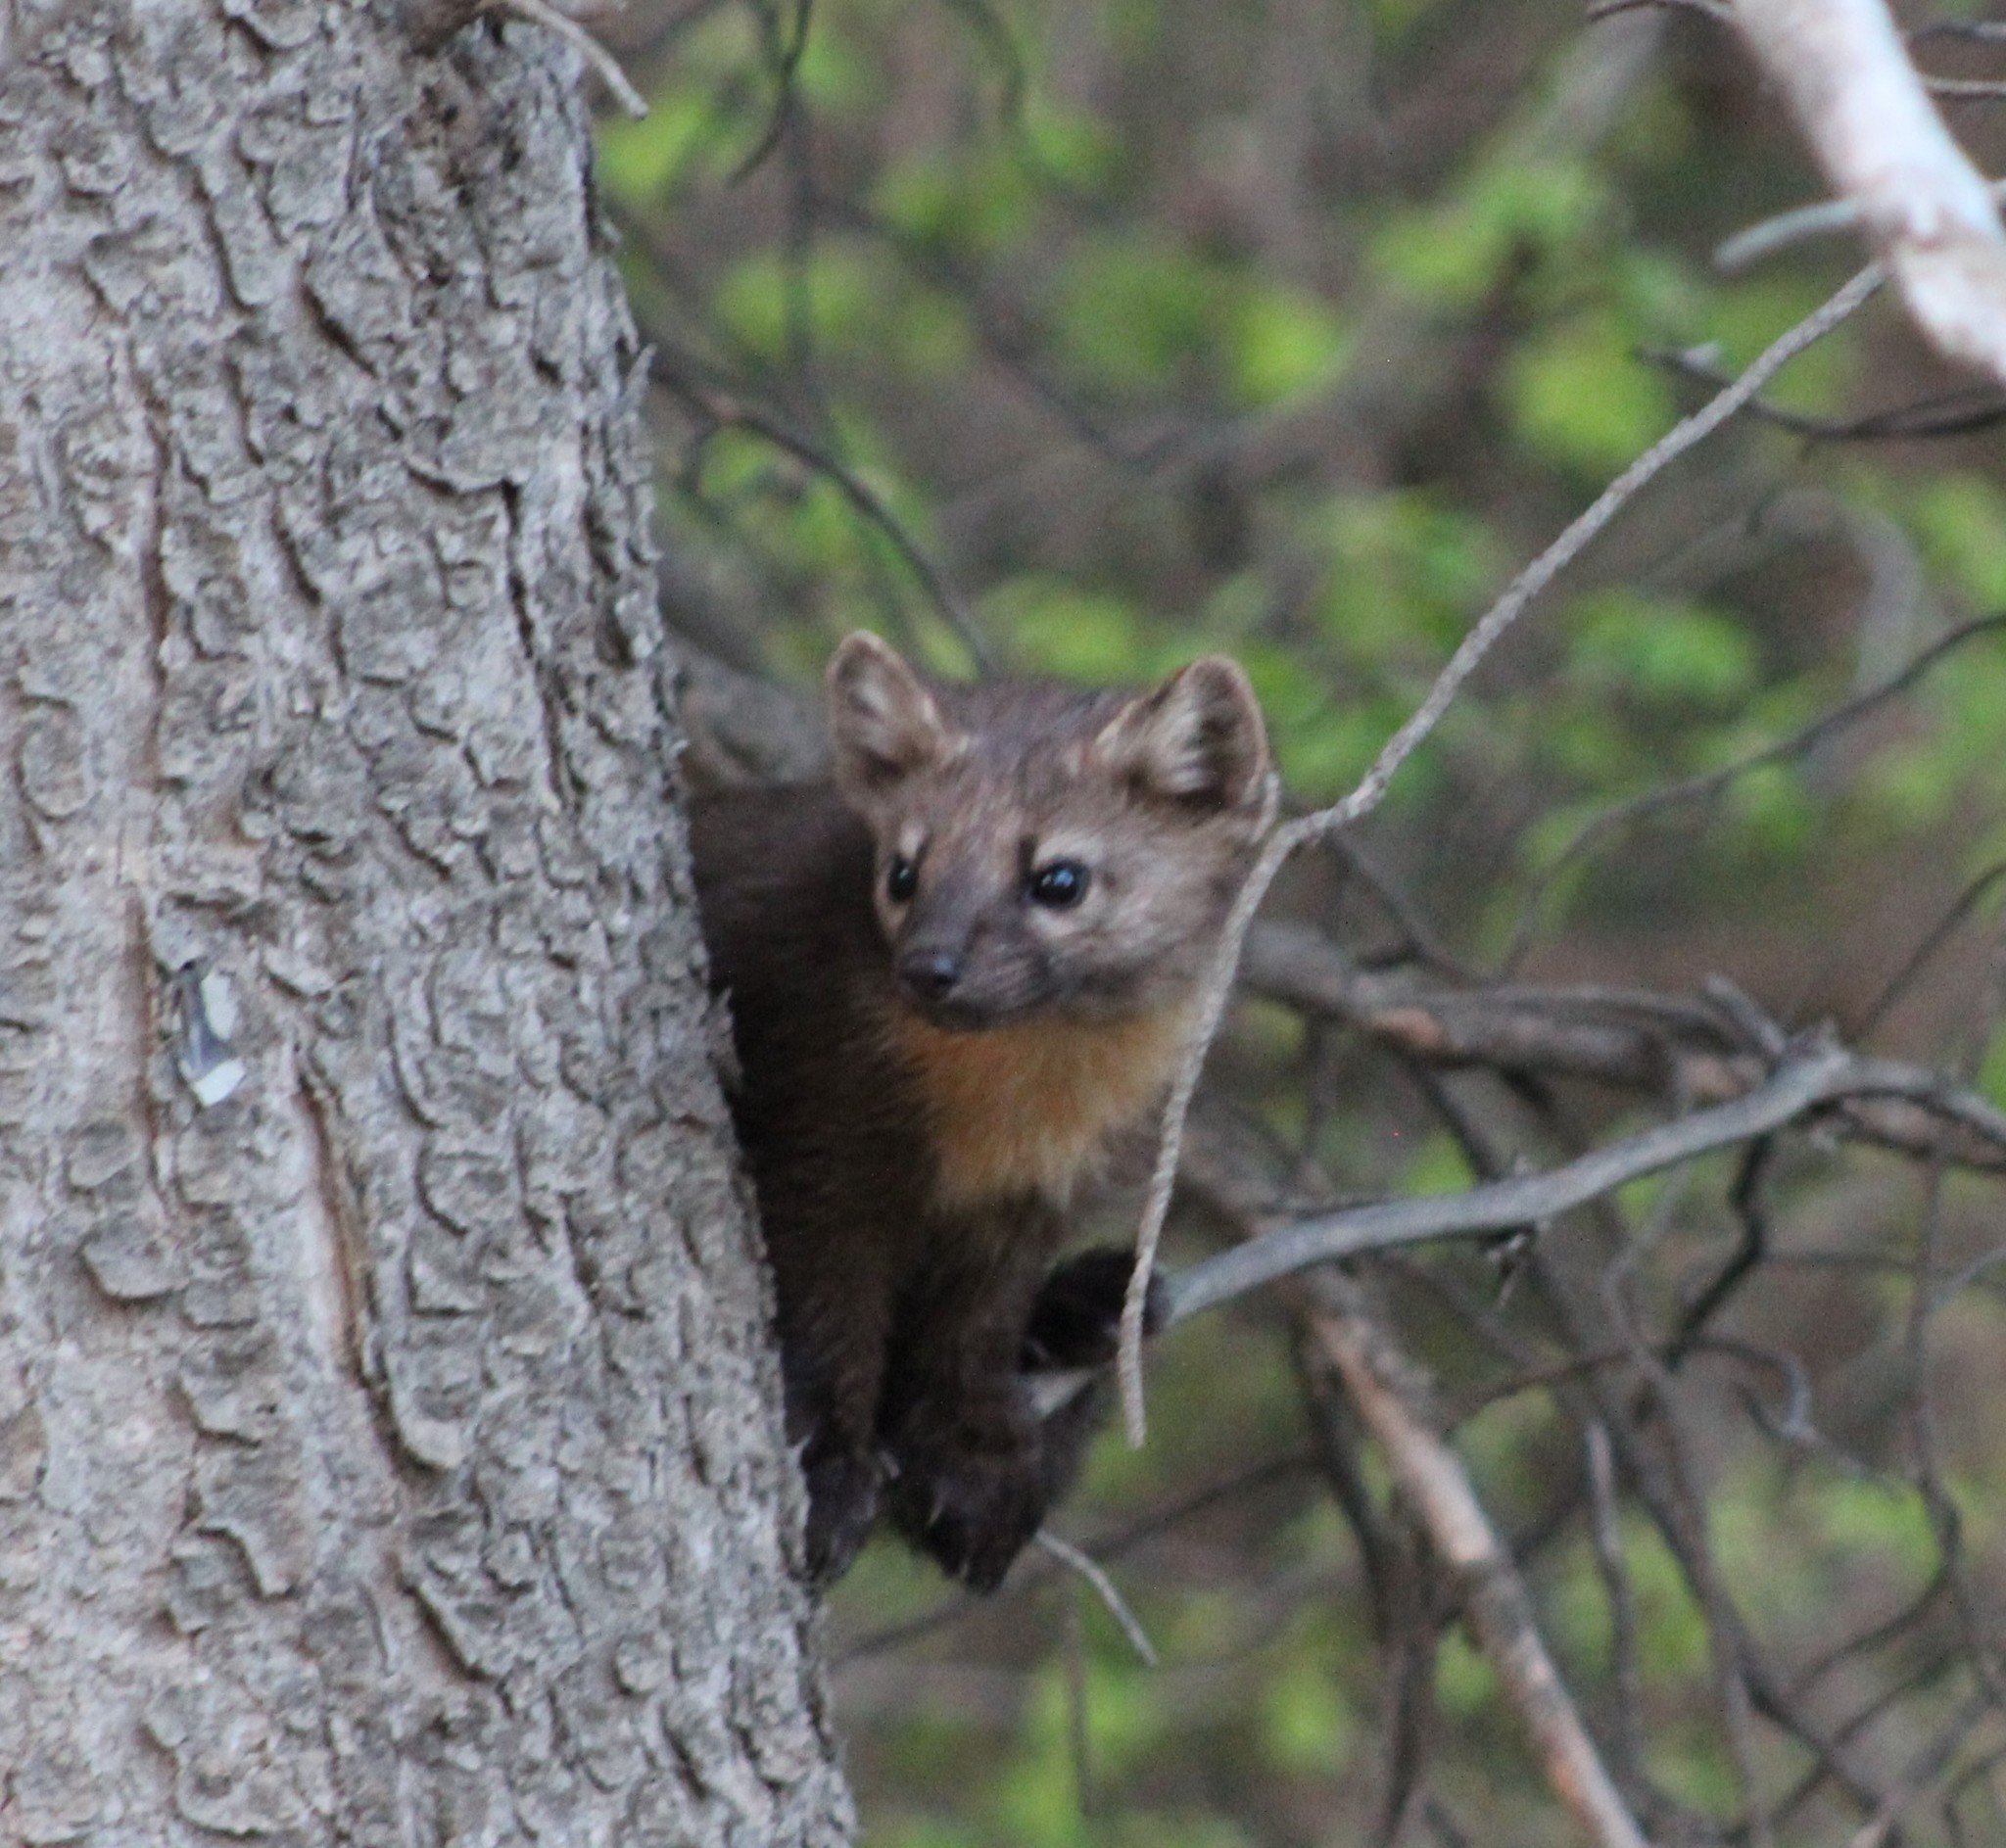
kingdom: Animalia
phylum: Chordata
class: Mammalia
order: Carnivora
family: Mustelidae
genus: Martes
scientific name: Martes caurina
